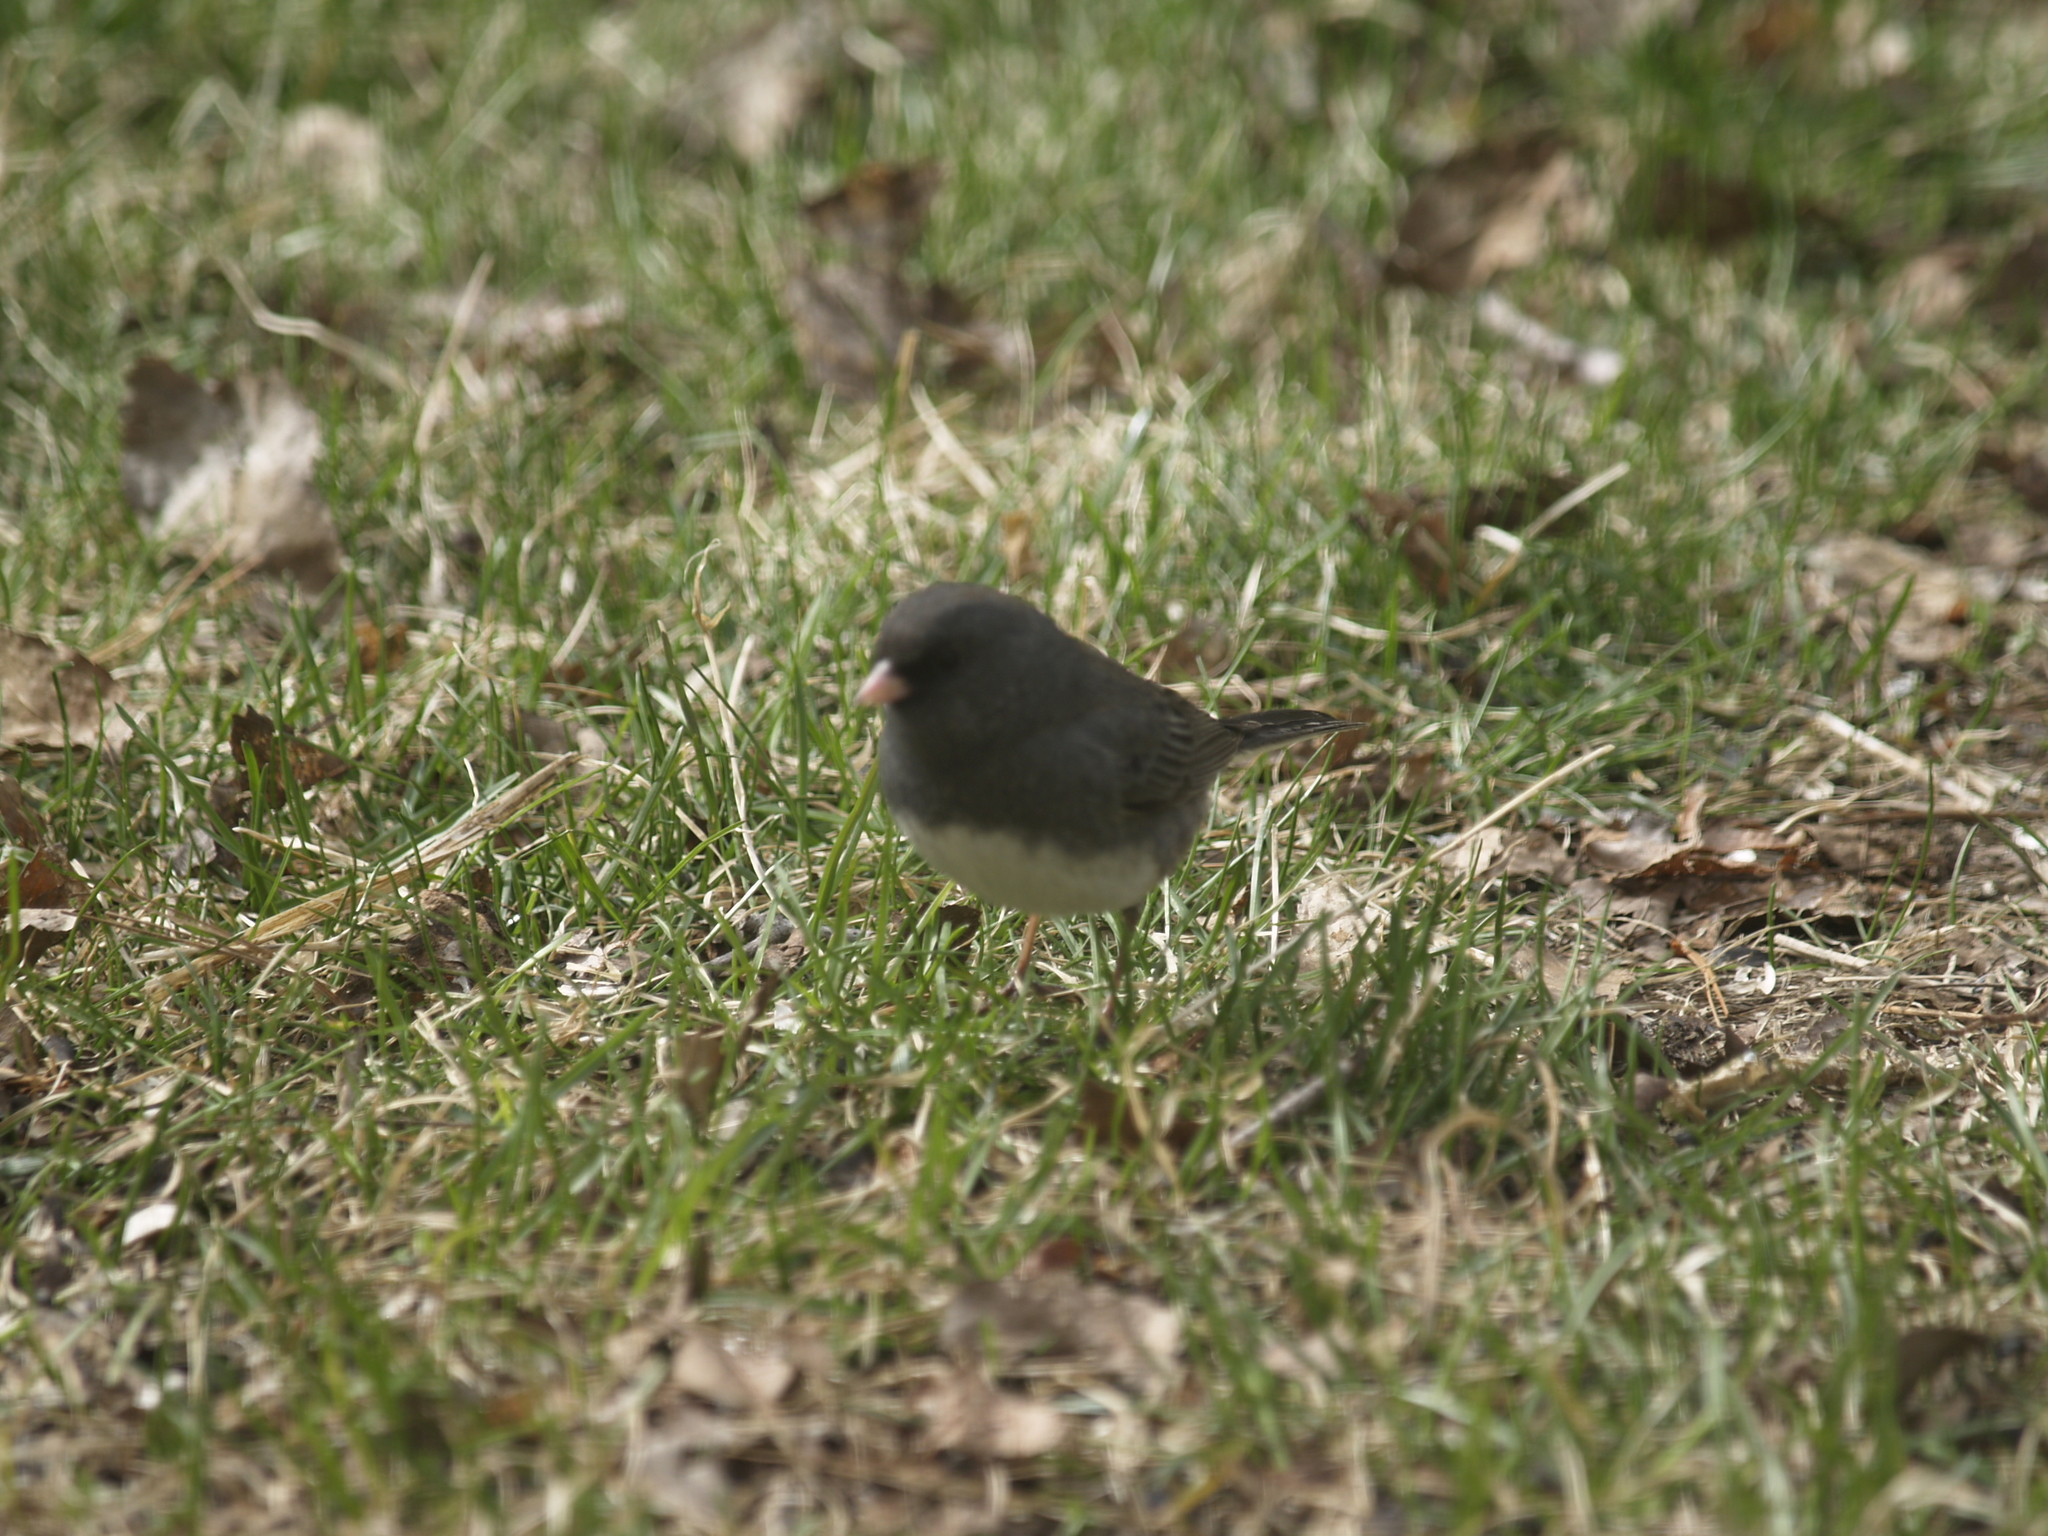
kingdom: Animalia
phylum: Chordata
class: Aves
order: Passeriformes
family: Passerellidae
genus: Junco
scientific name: Junco hyemalis
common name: Dark-eyed junco
